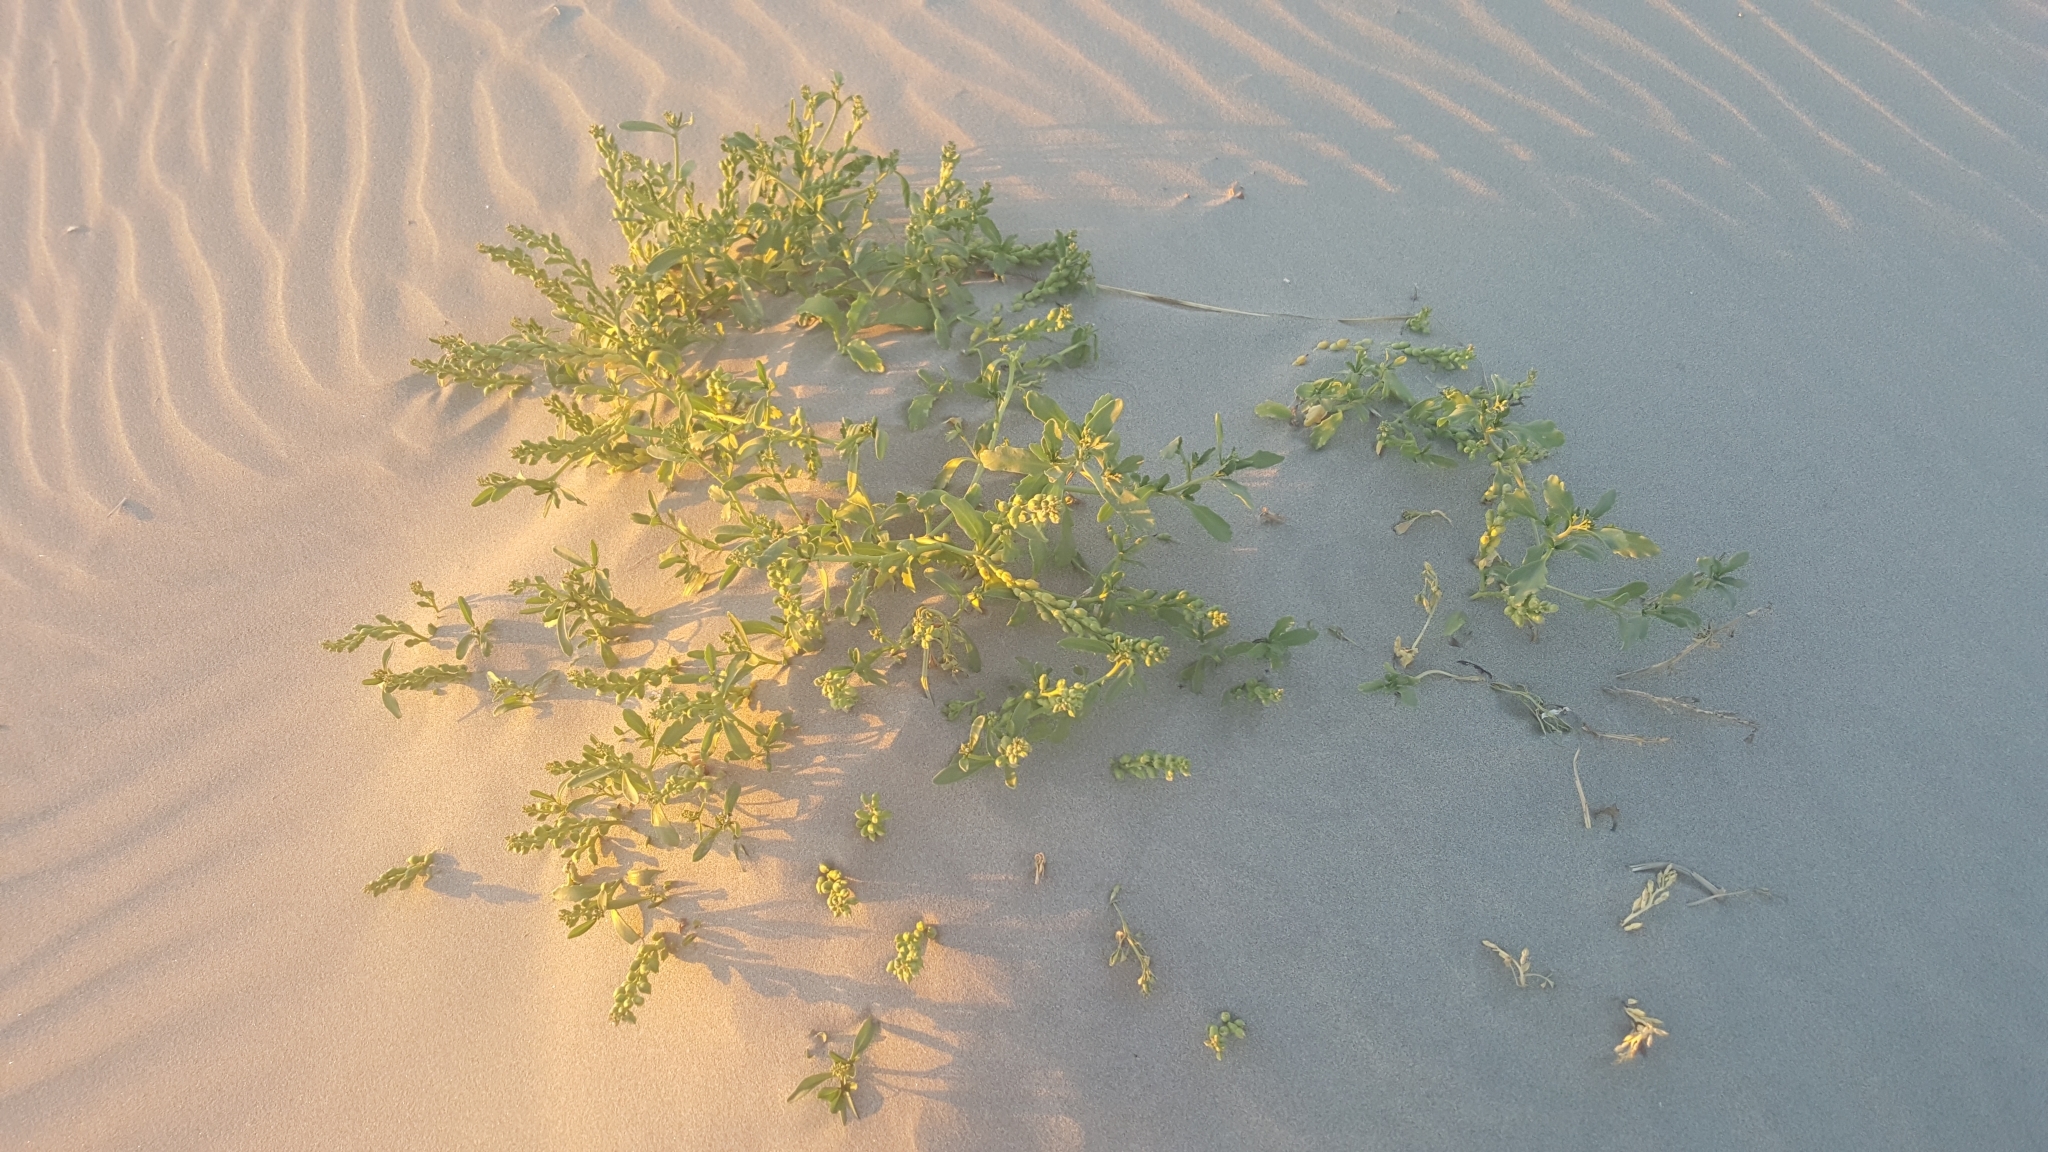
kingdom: Plantae
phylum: Tracheophyta
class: Magnoliopsida
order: Brassicales
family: Brassicaceae
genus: Cakile
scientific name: Cakile edentula
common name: American sea rocket
